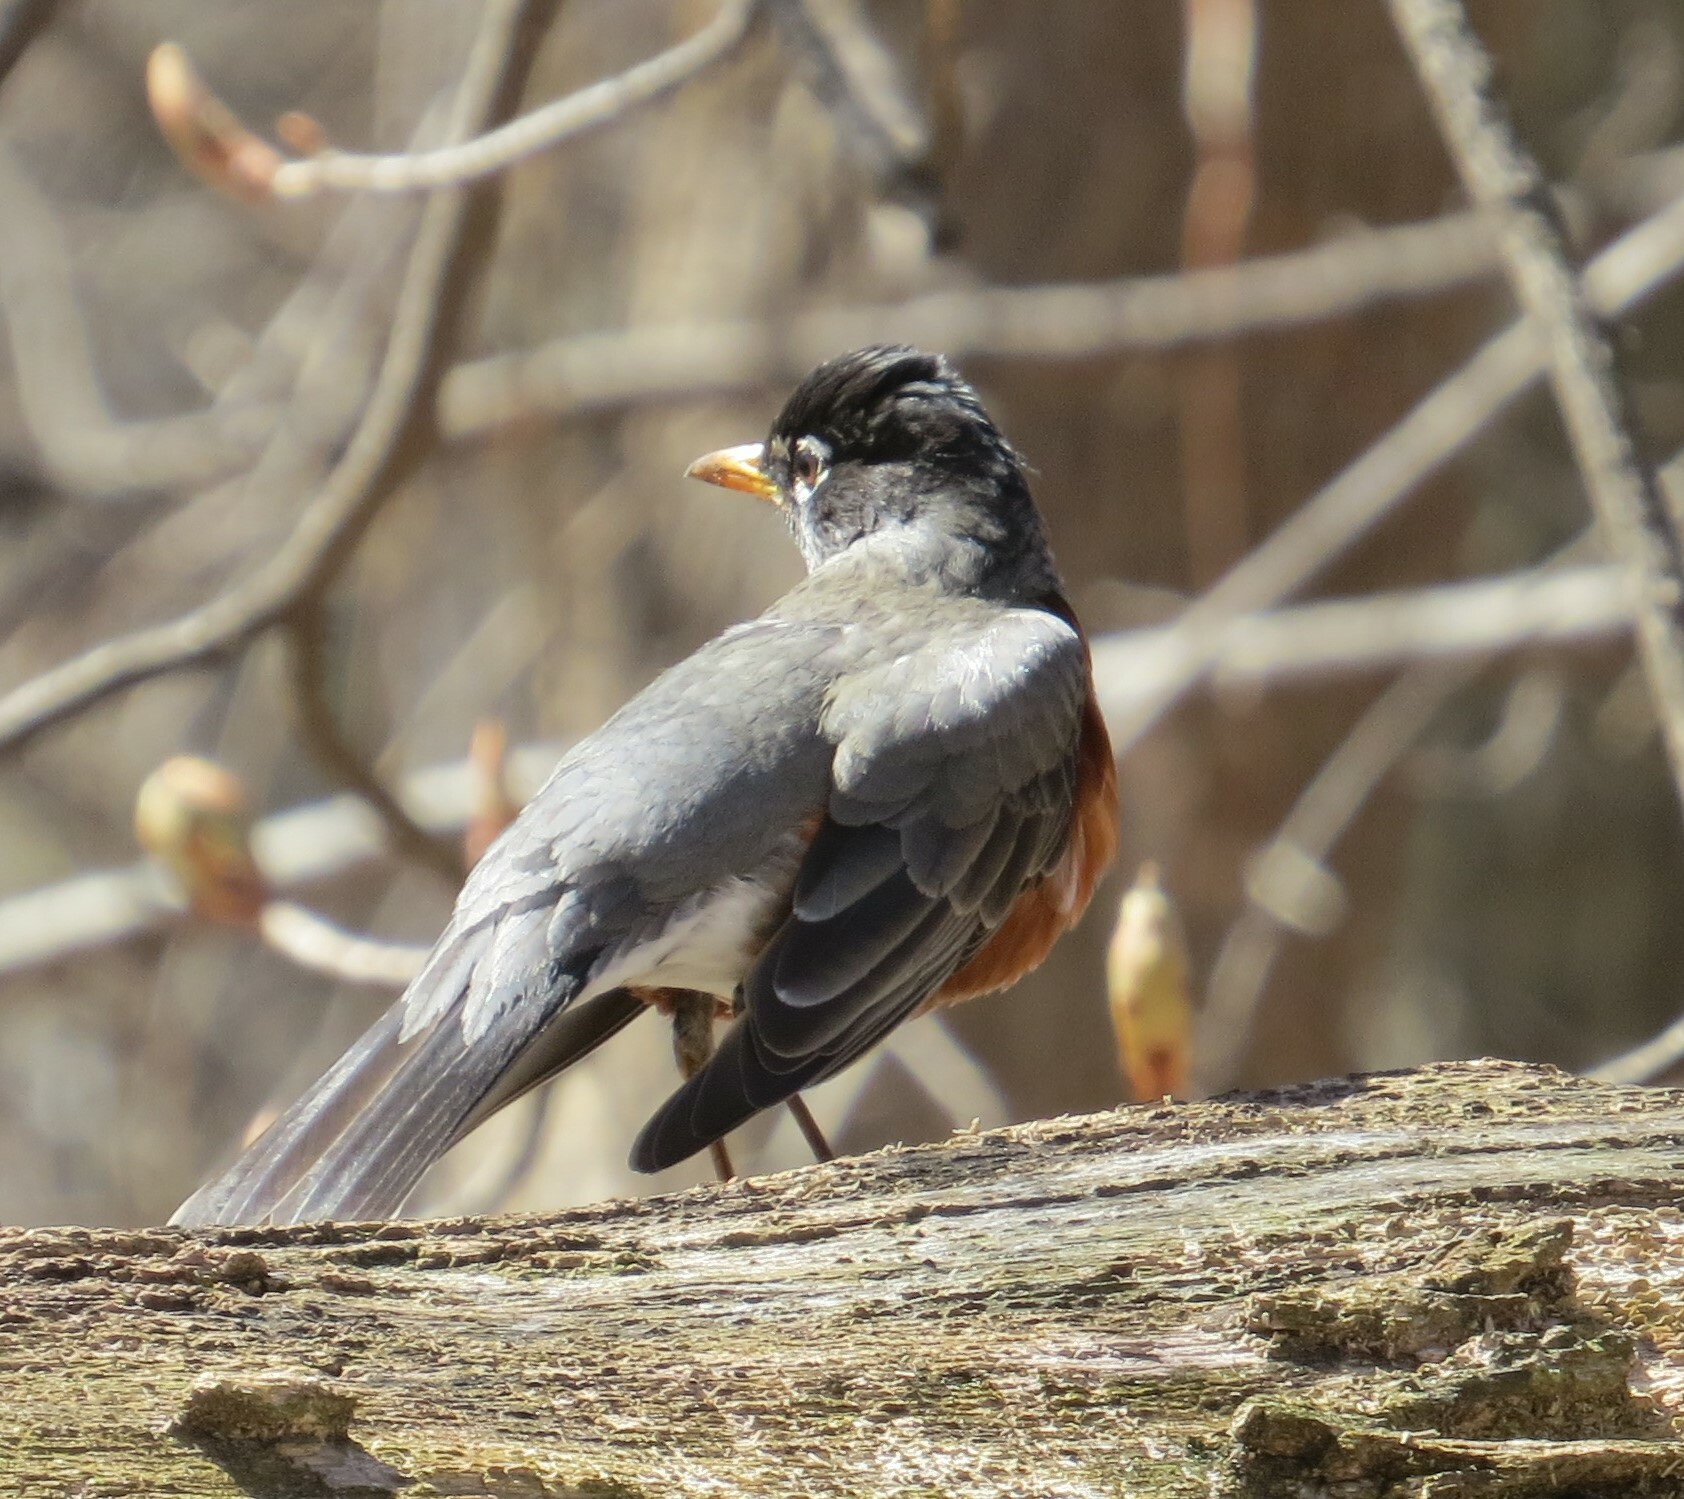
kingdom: Animalia
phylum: Chordata
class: Aves
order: Passeriformes
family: Turdidae
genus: Turdus
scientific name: Turdus migratorius
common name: American robin
